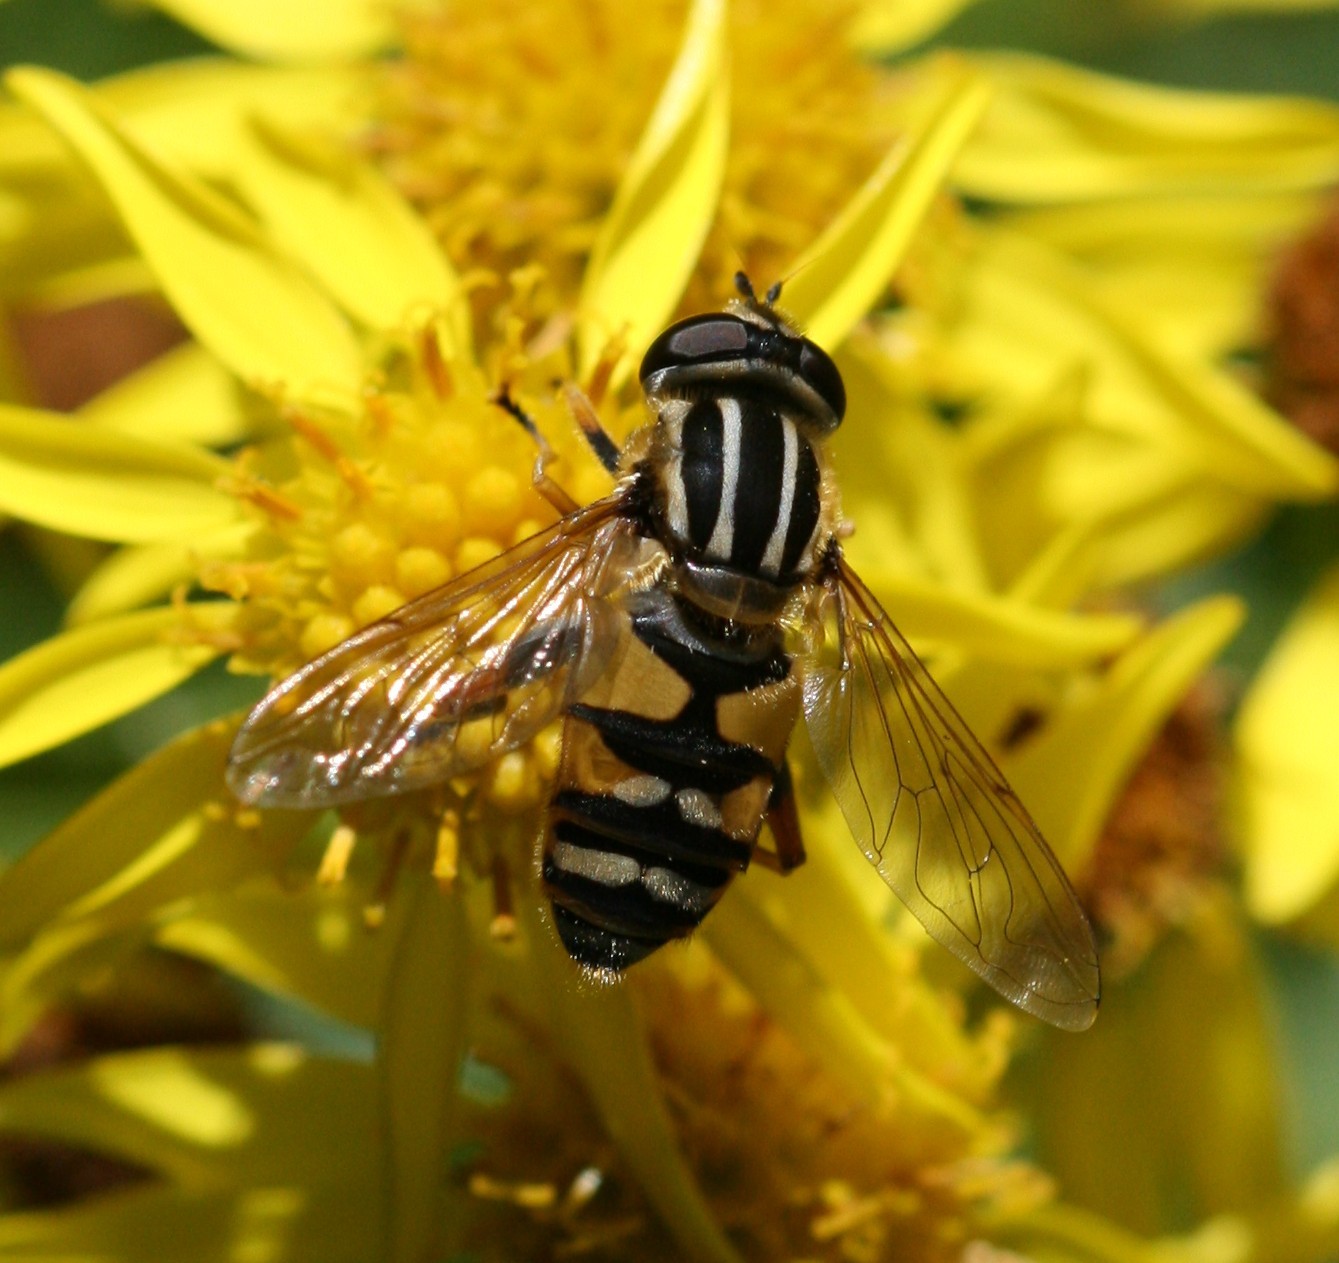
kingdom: Animalia
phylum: Arthropoda
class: Insecta
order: Diptera
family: Syrphidae
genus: Helophilus
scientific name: Helophilus pendulus
